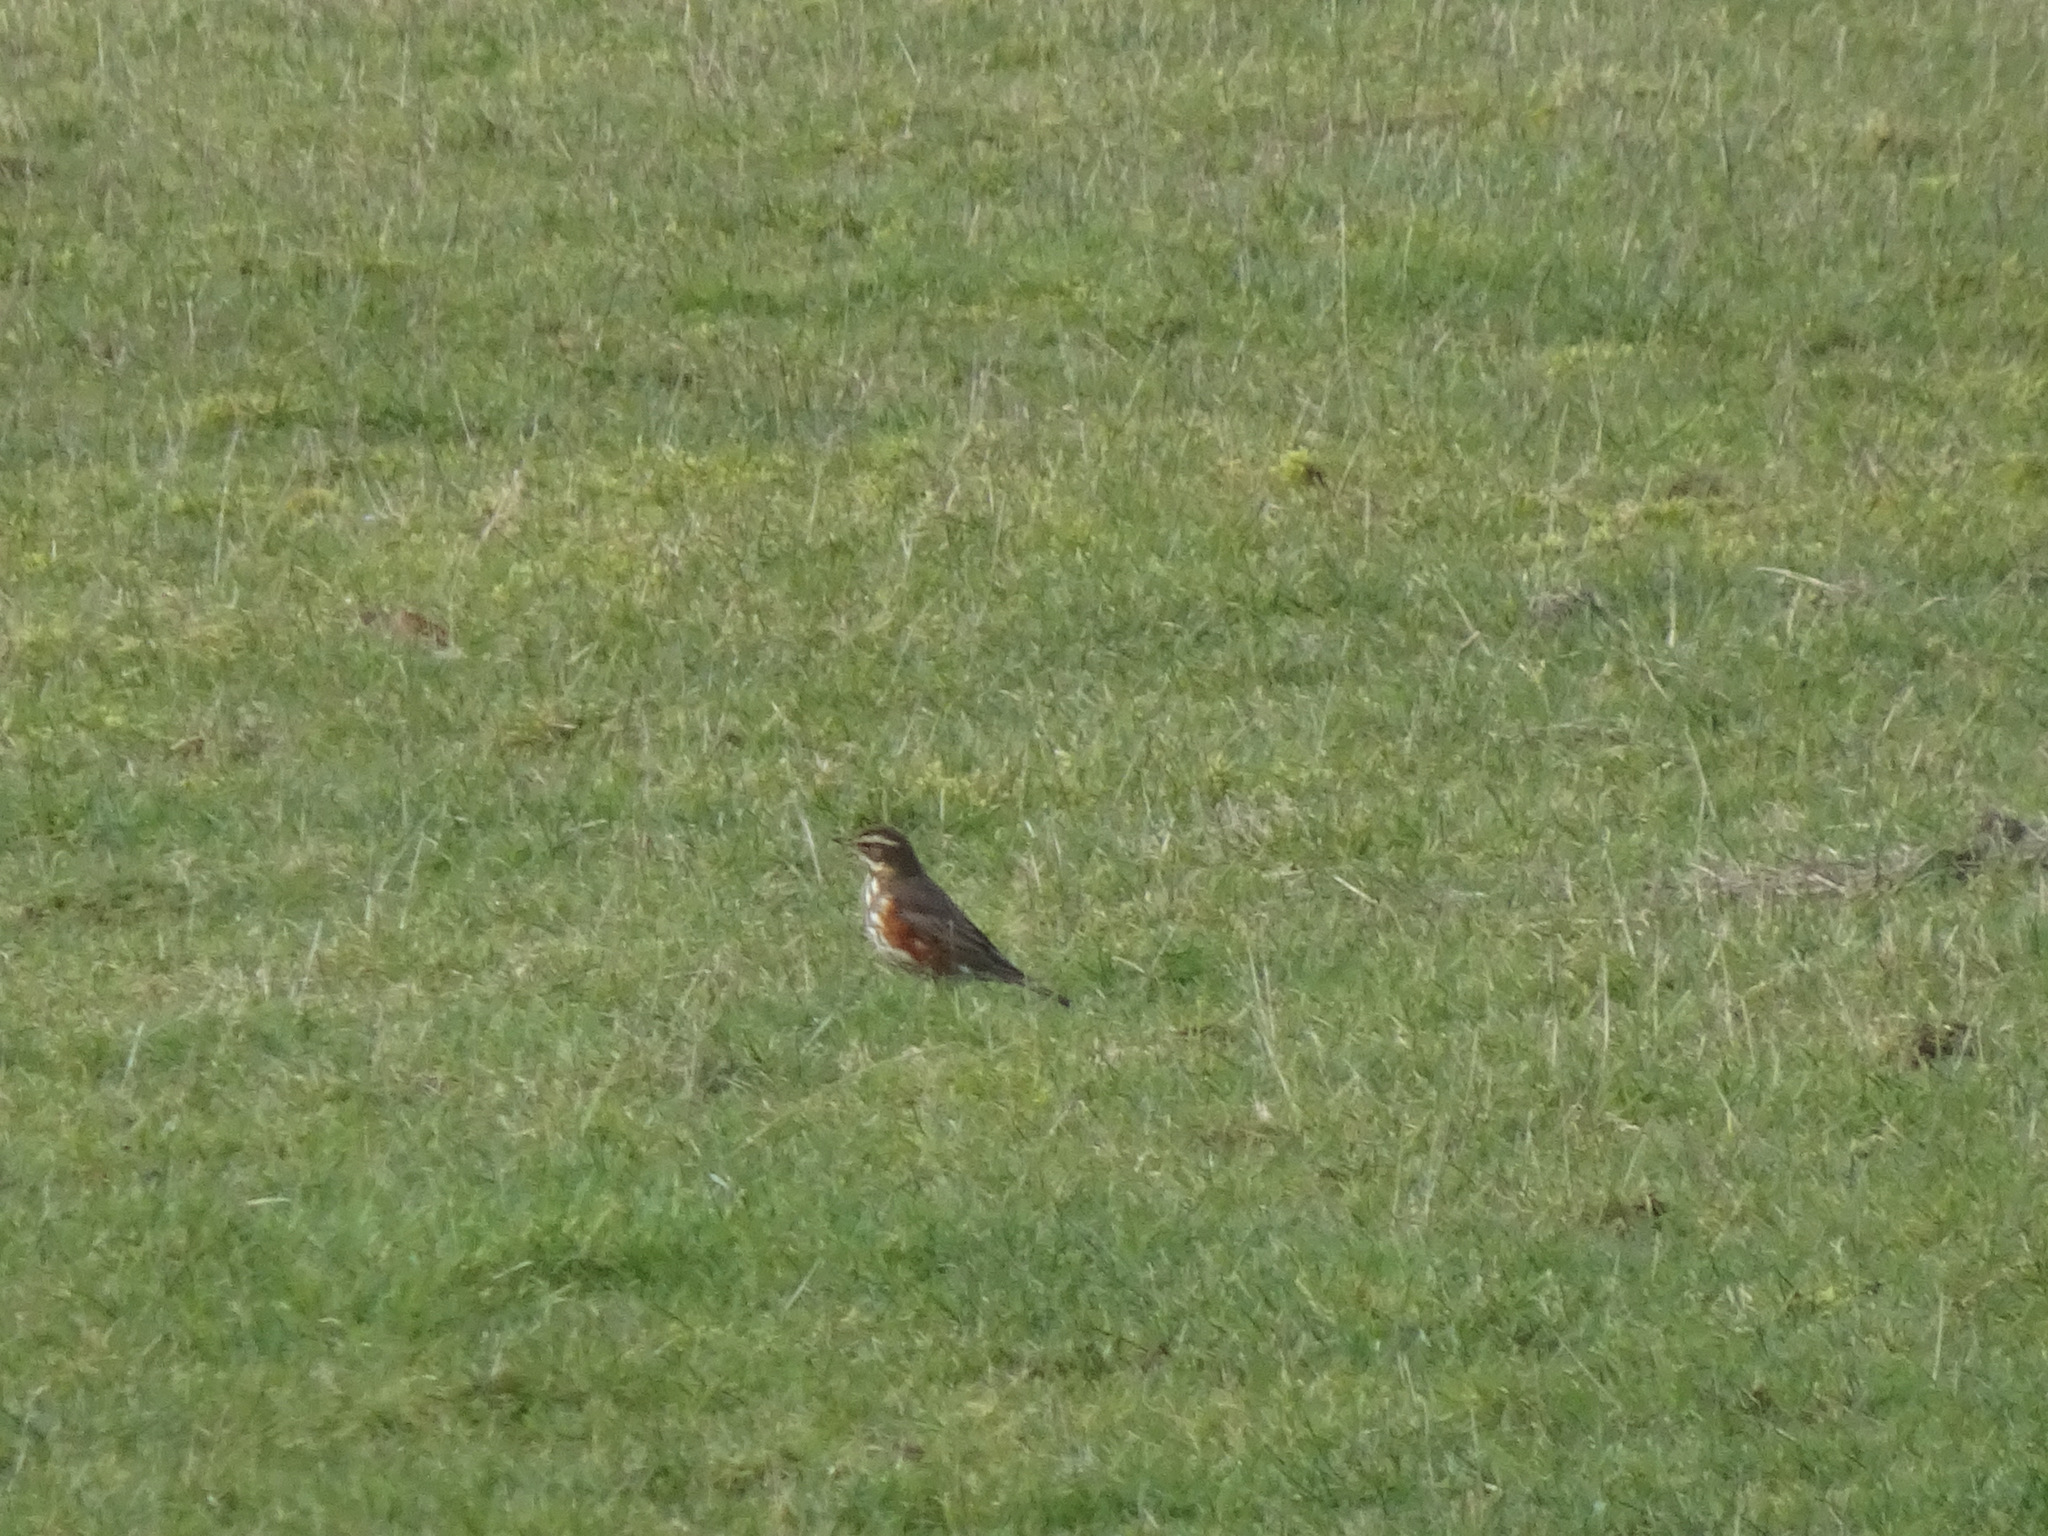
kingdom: Animalia
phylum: Chordata
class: Aves
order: Passeriformes
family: Turdidae
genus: Turdus
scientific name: Turdus iliacus
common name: Redwing
